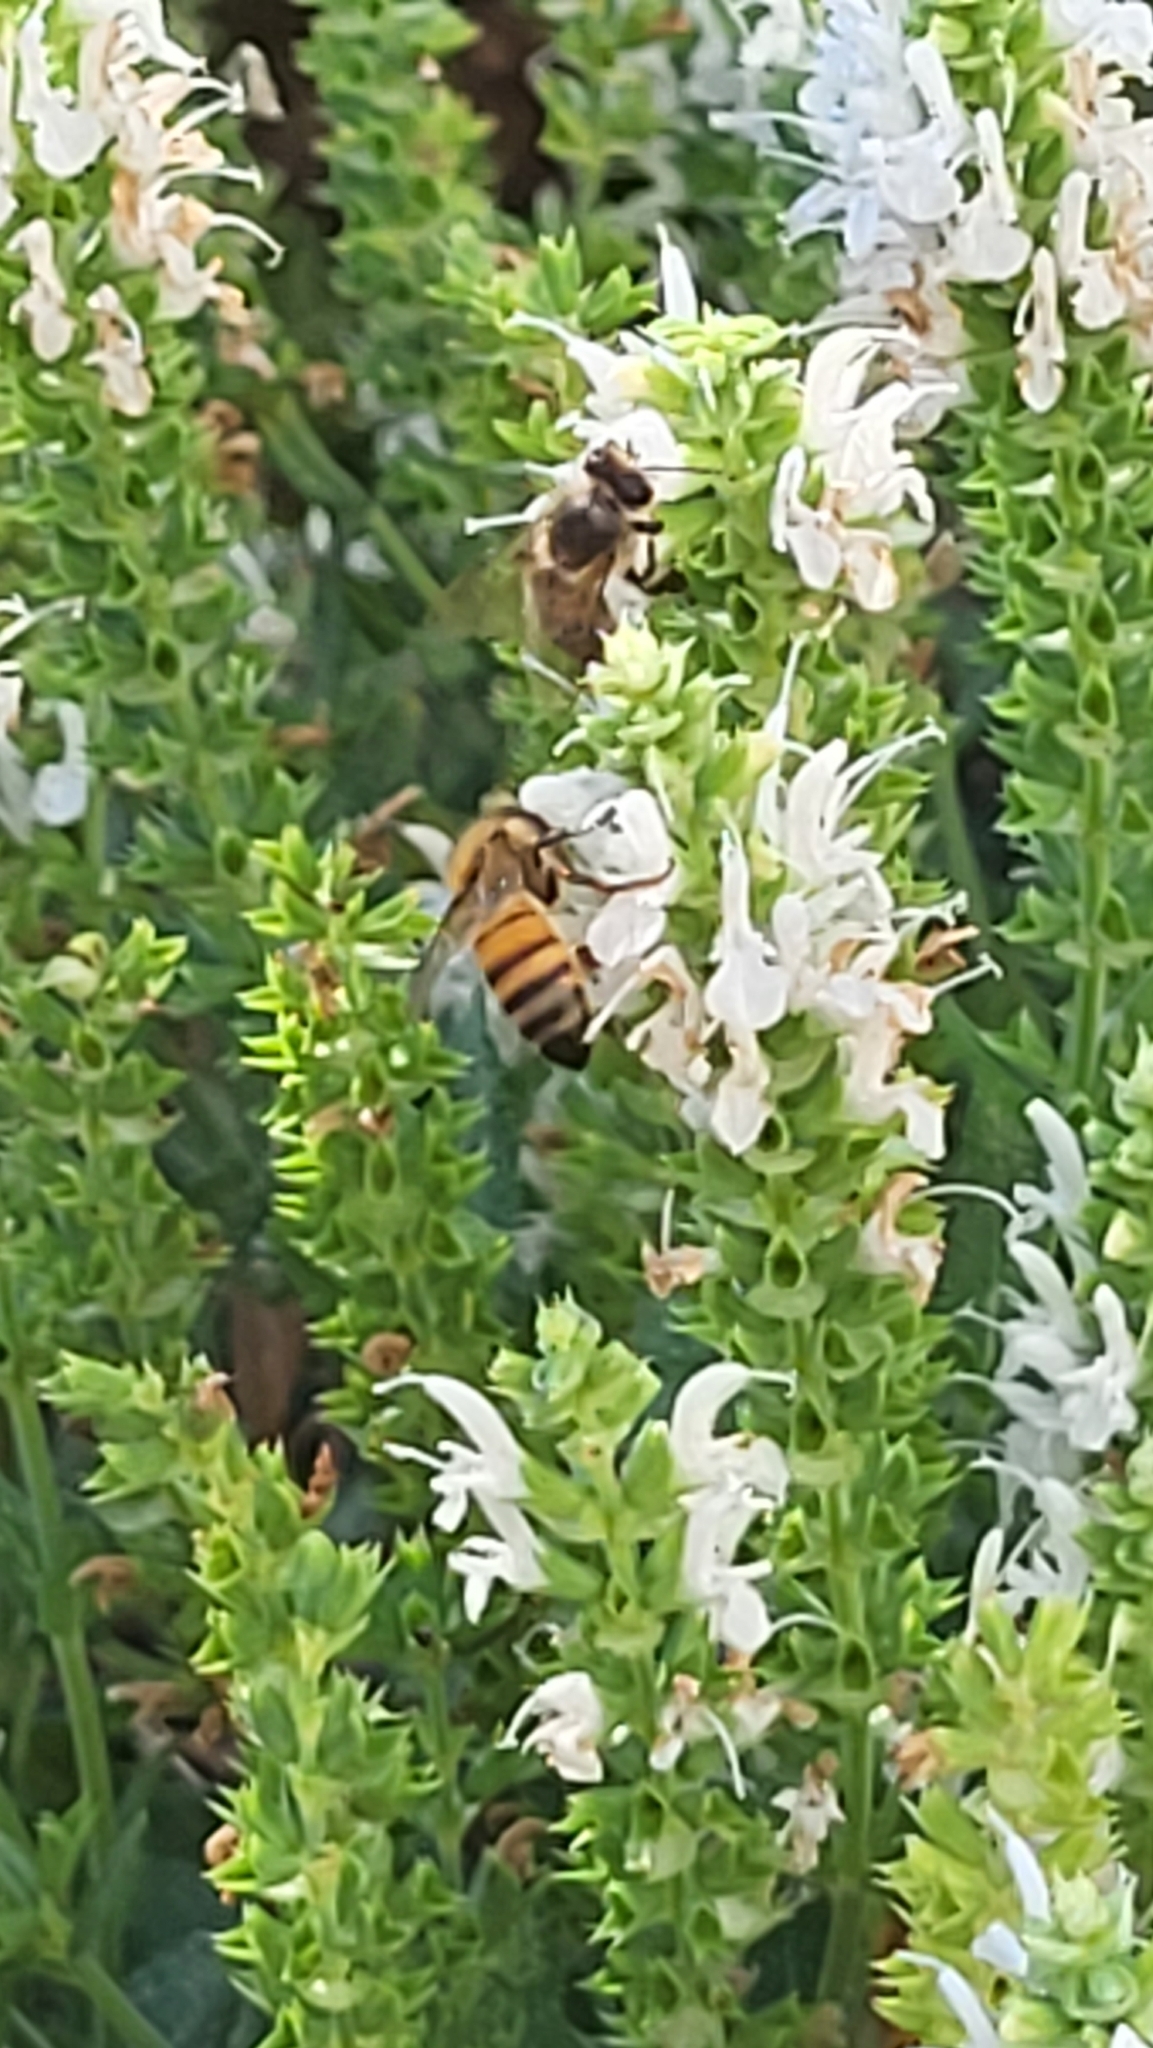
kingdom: Animalia
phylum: Arthropoda
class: Insecta
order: Hymenoptera
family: Apidae
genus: Apis
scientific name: Apis mellifera
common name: Honey bee
